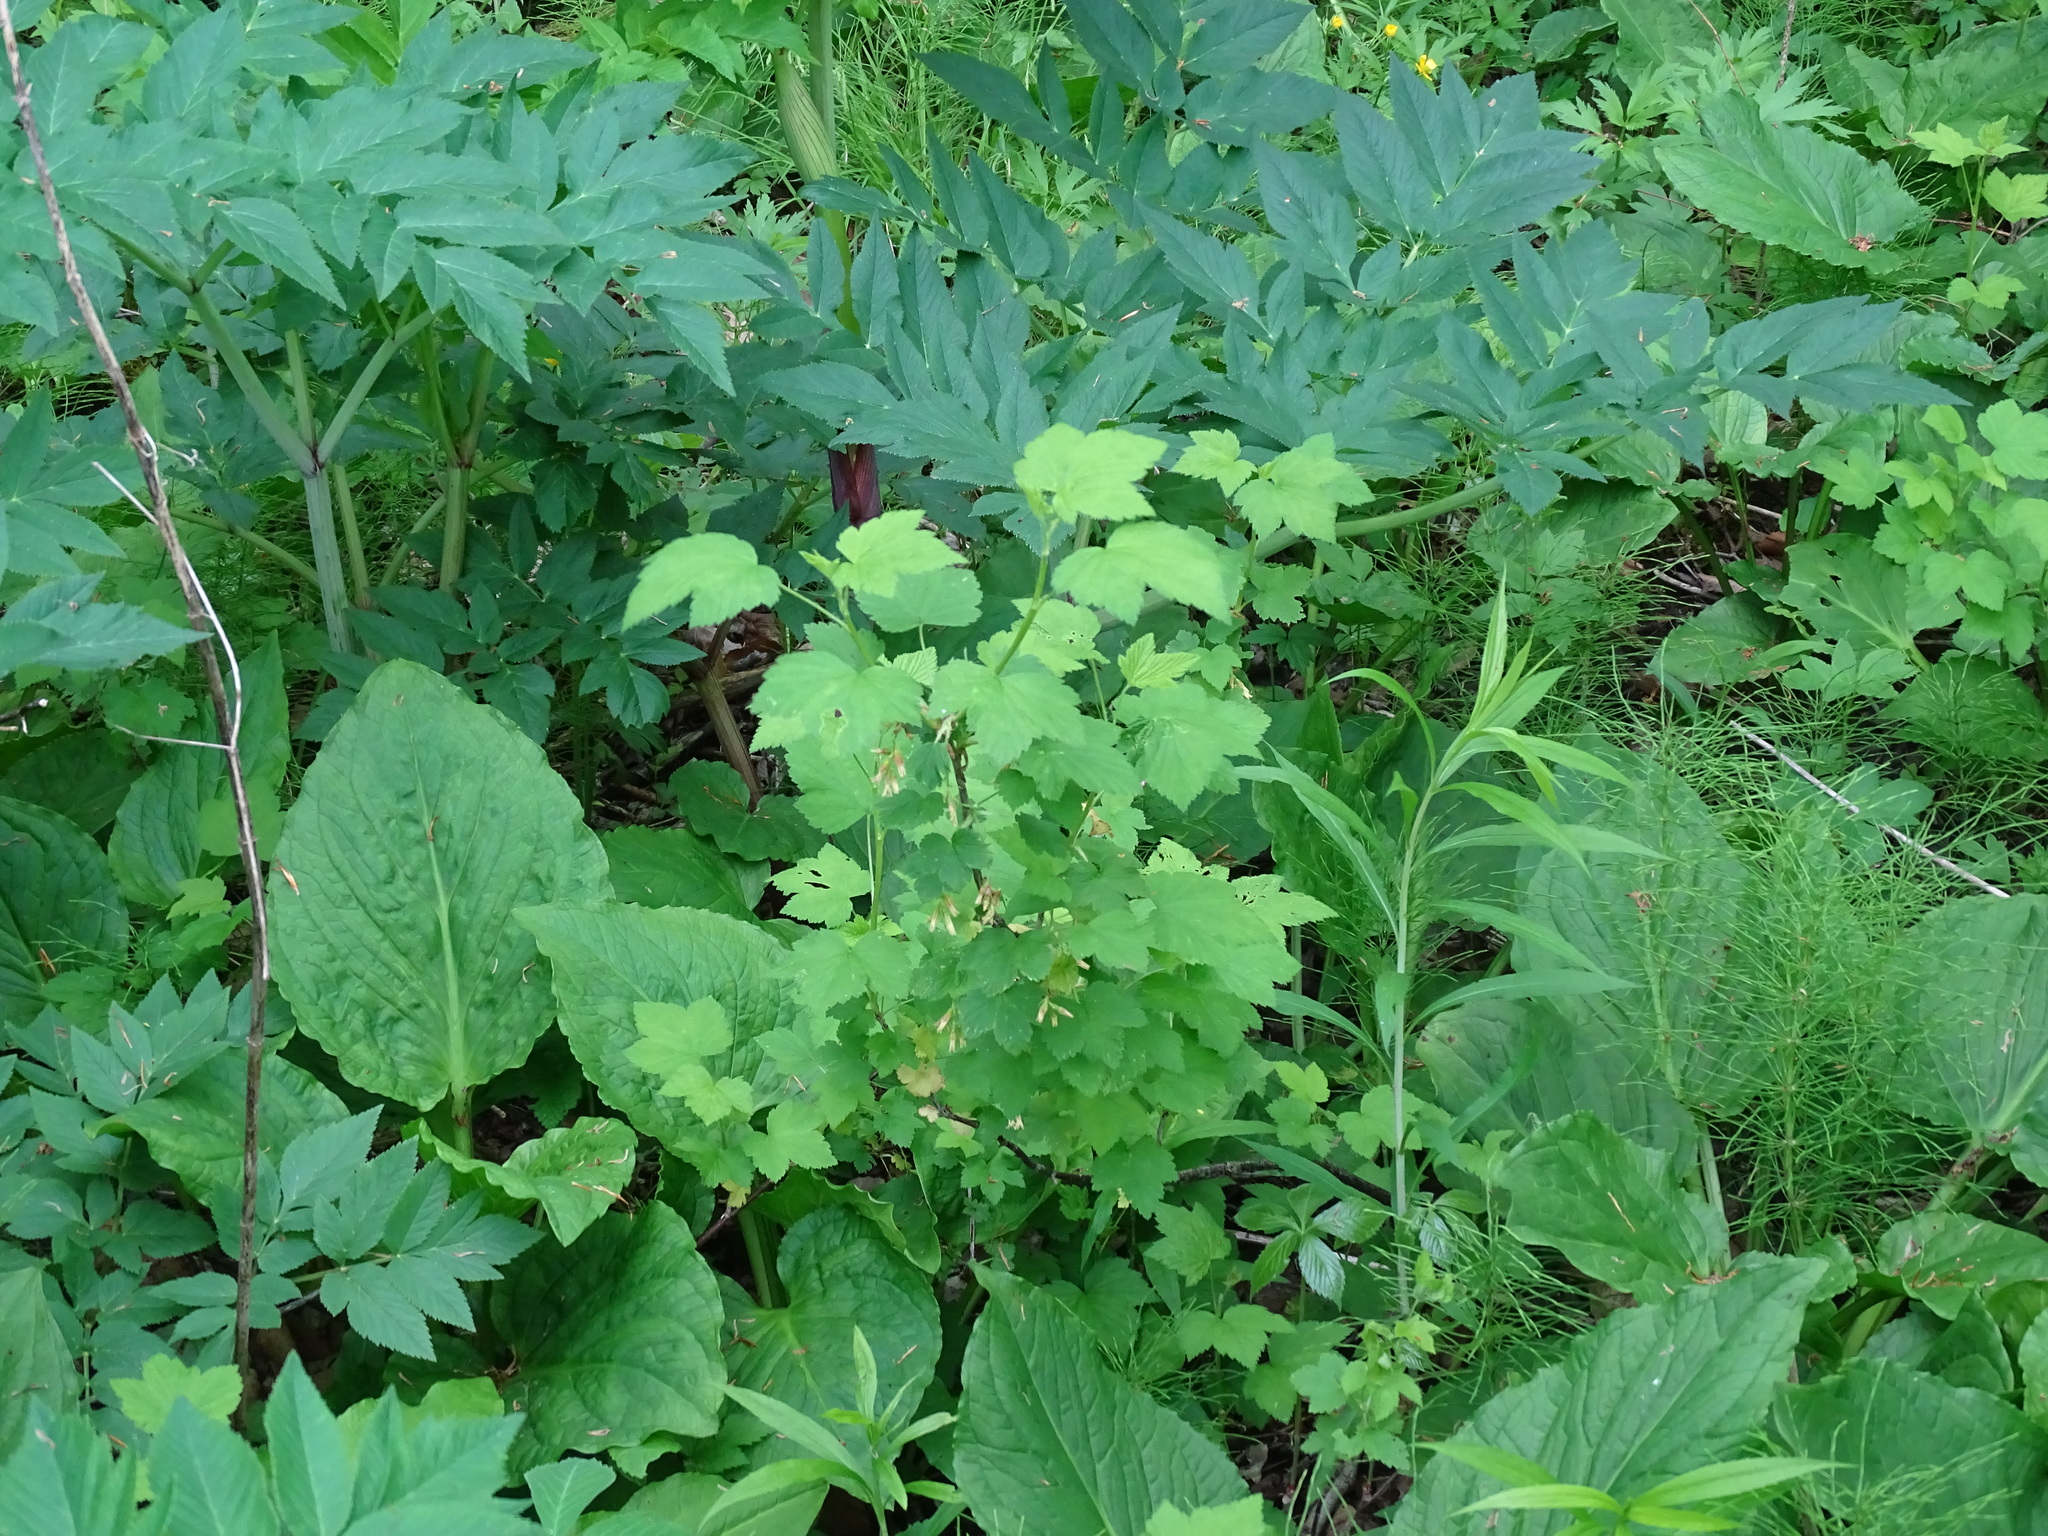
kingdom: Plantae
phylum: Tracheophyta
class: Magnoliopsida
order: Saxifragales
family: Grossulariaceae
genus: Ribes
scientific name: Ribes americanum
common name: American black currant
